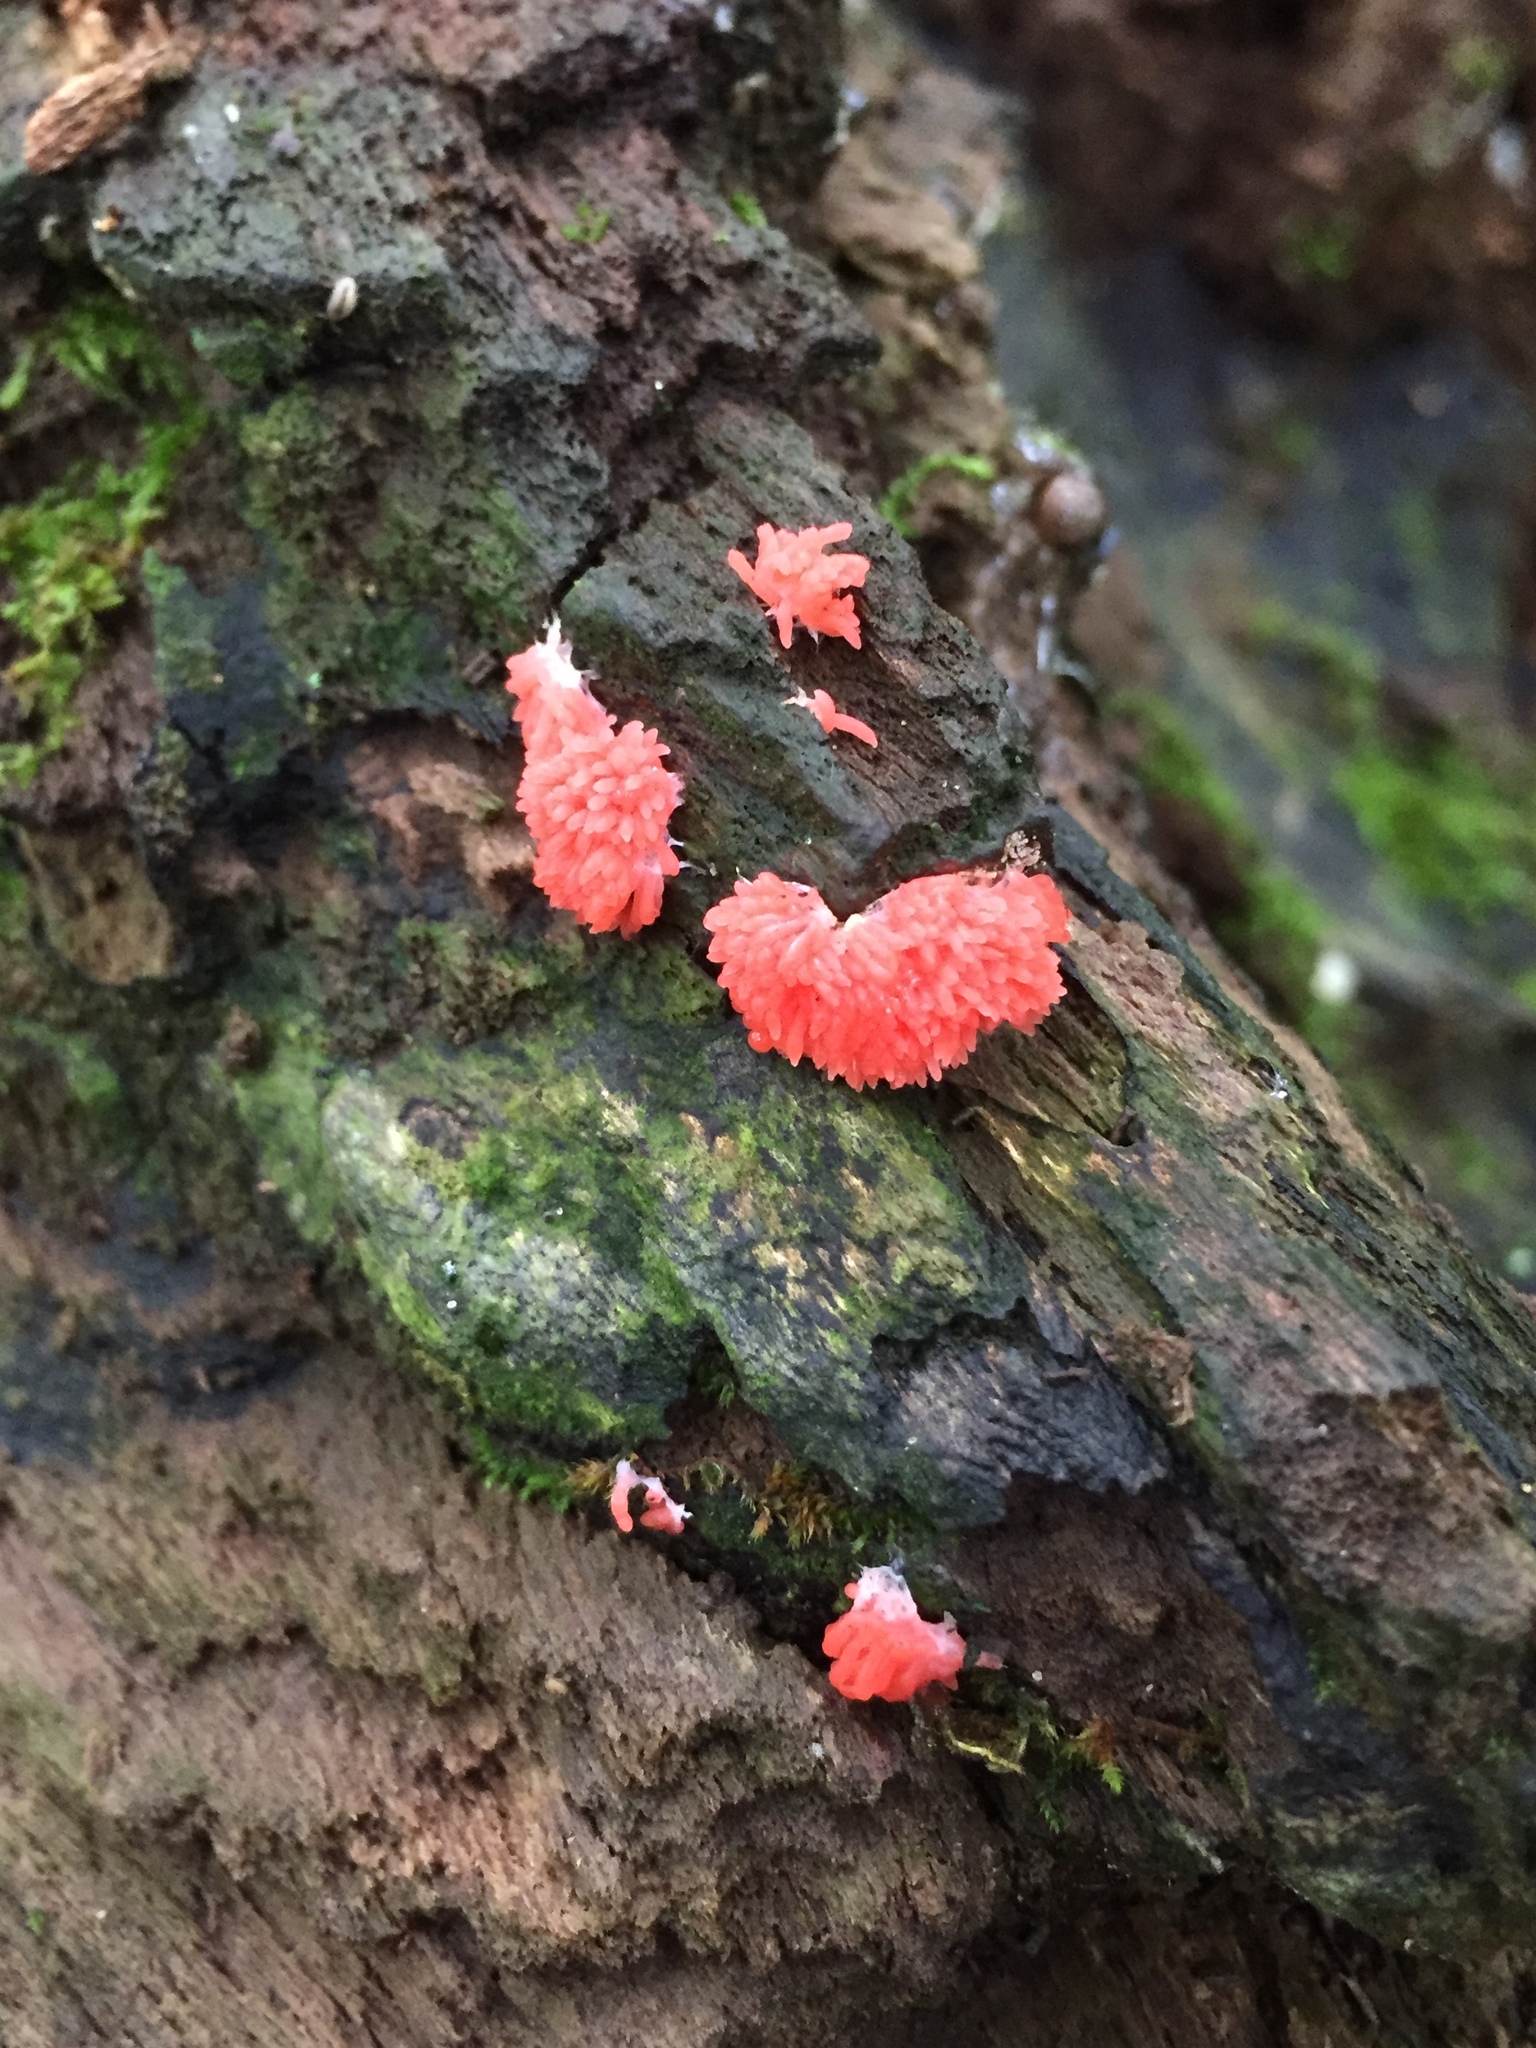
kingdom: Protozoa
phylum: Mycetozoa
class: Myxomycetes
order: Cribrariales
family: Tubiferaceae
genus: Tubifera
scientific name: Tubifera ferruginosa
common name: Red raspberry slime mold
